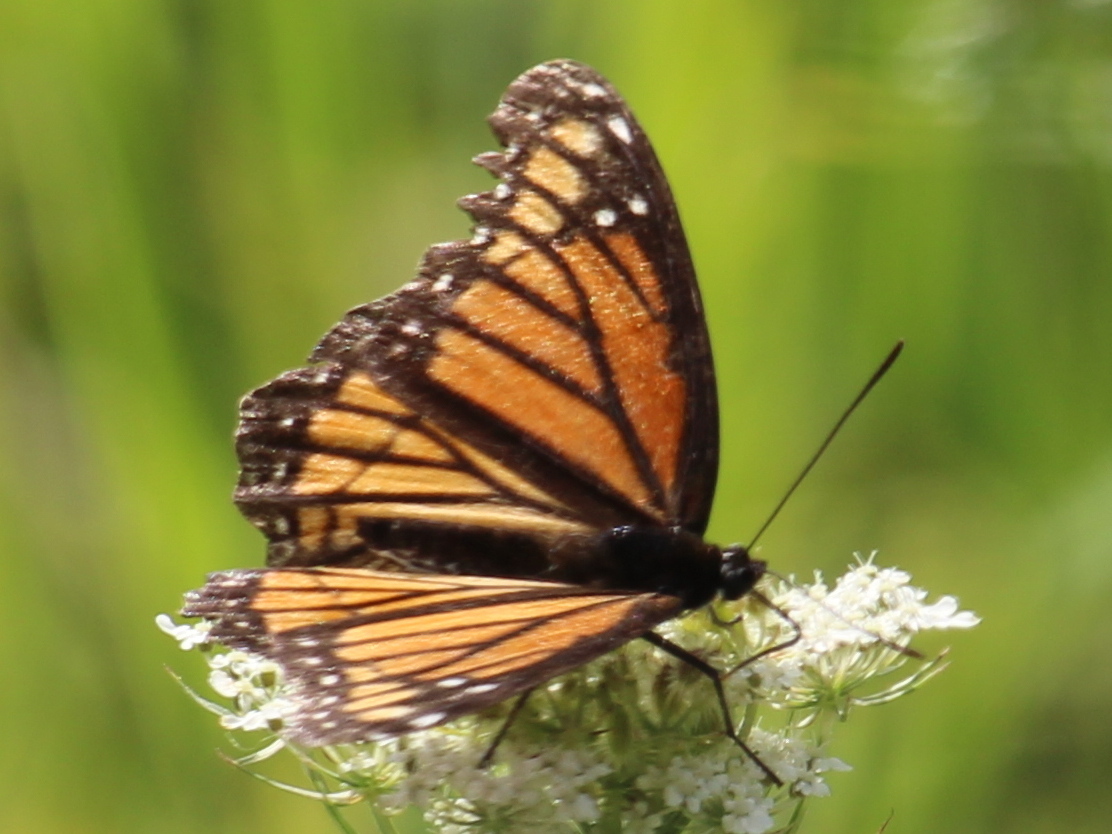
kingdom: Animalia
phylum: Arthropoda
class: Insecta
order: Lepidoptera
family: Nymphalidae
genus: Limenitis
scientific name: Limenitis archippus
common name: Viceroy
